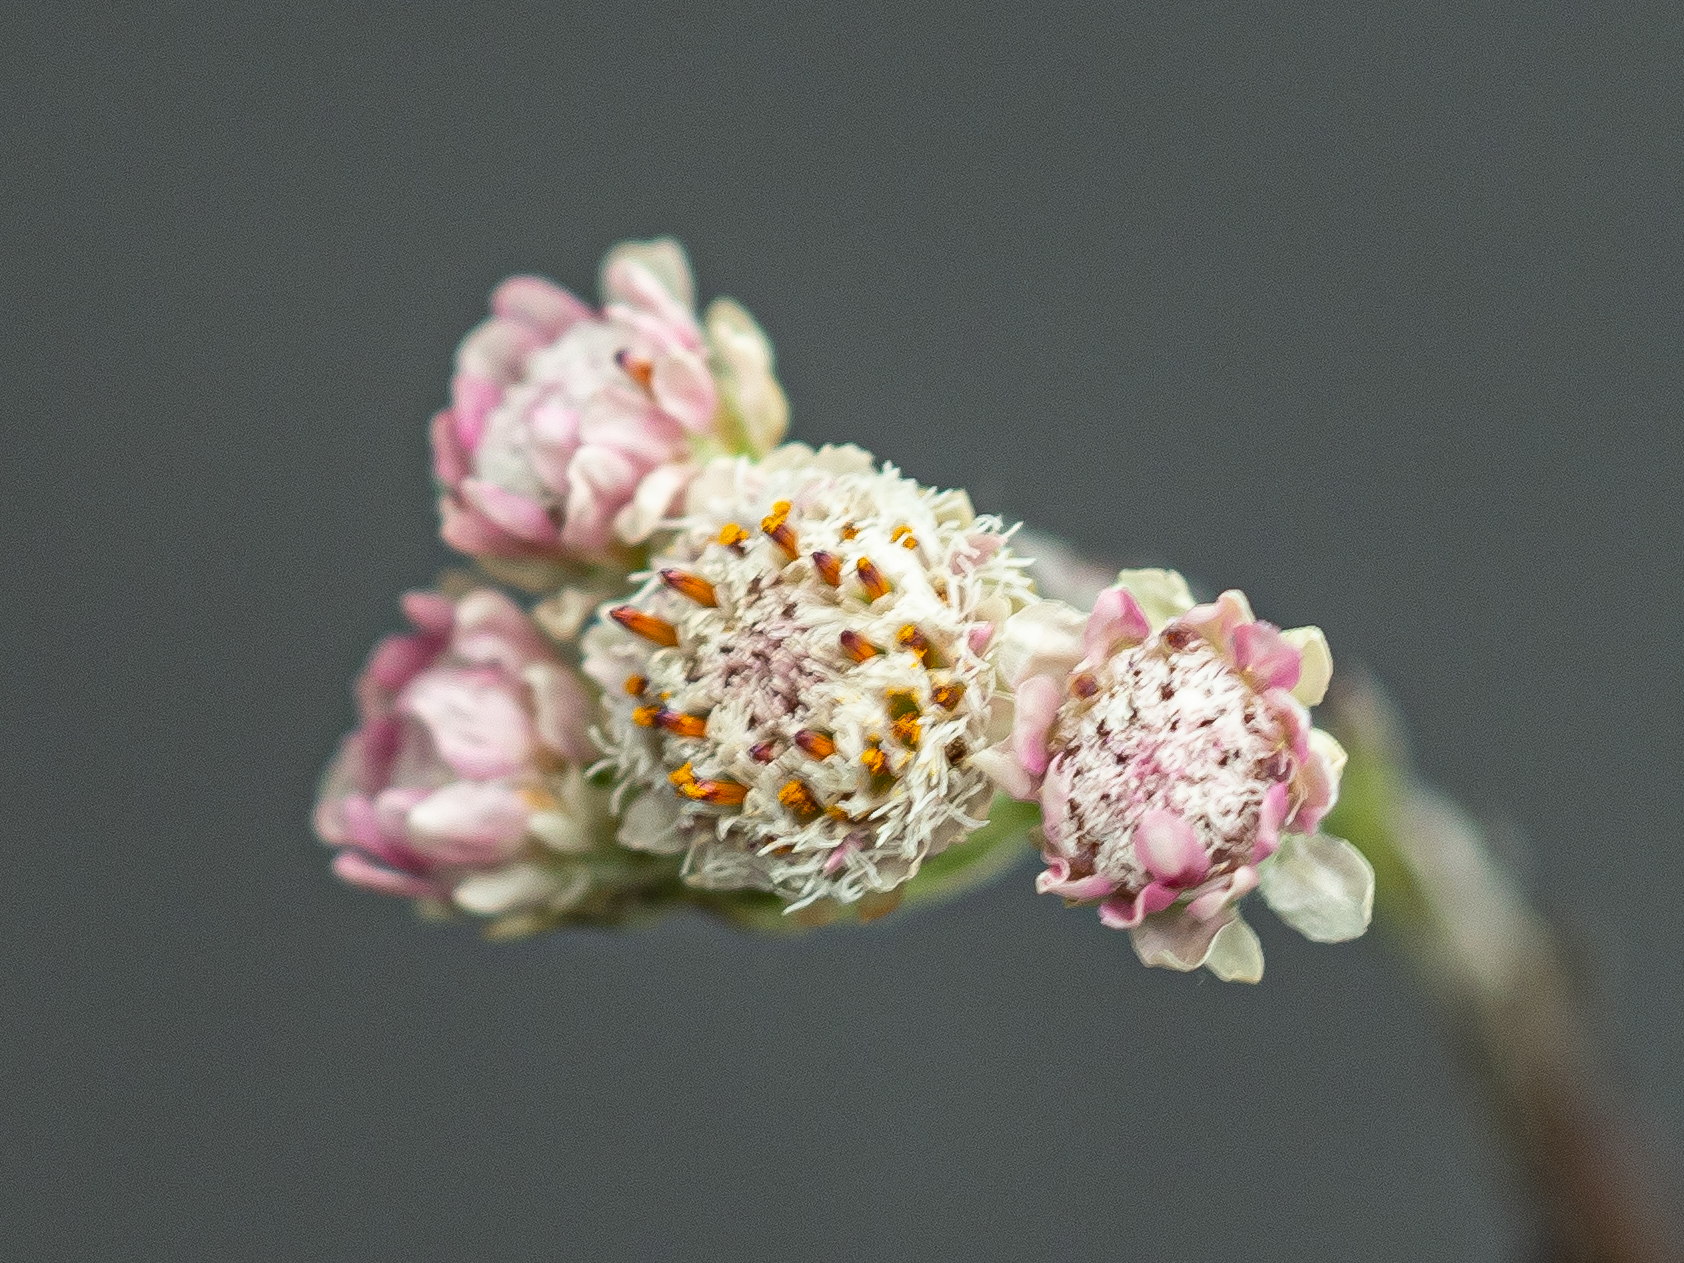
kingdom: Plantae
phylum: Tracheophyta
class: Magnoliopsida
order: Asterales
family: Asteraceae
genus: Antennaria
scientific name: Antennaria dioica
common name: Mountain everlasting
